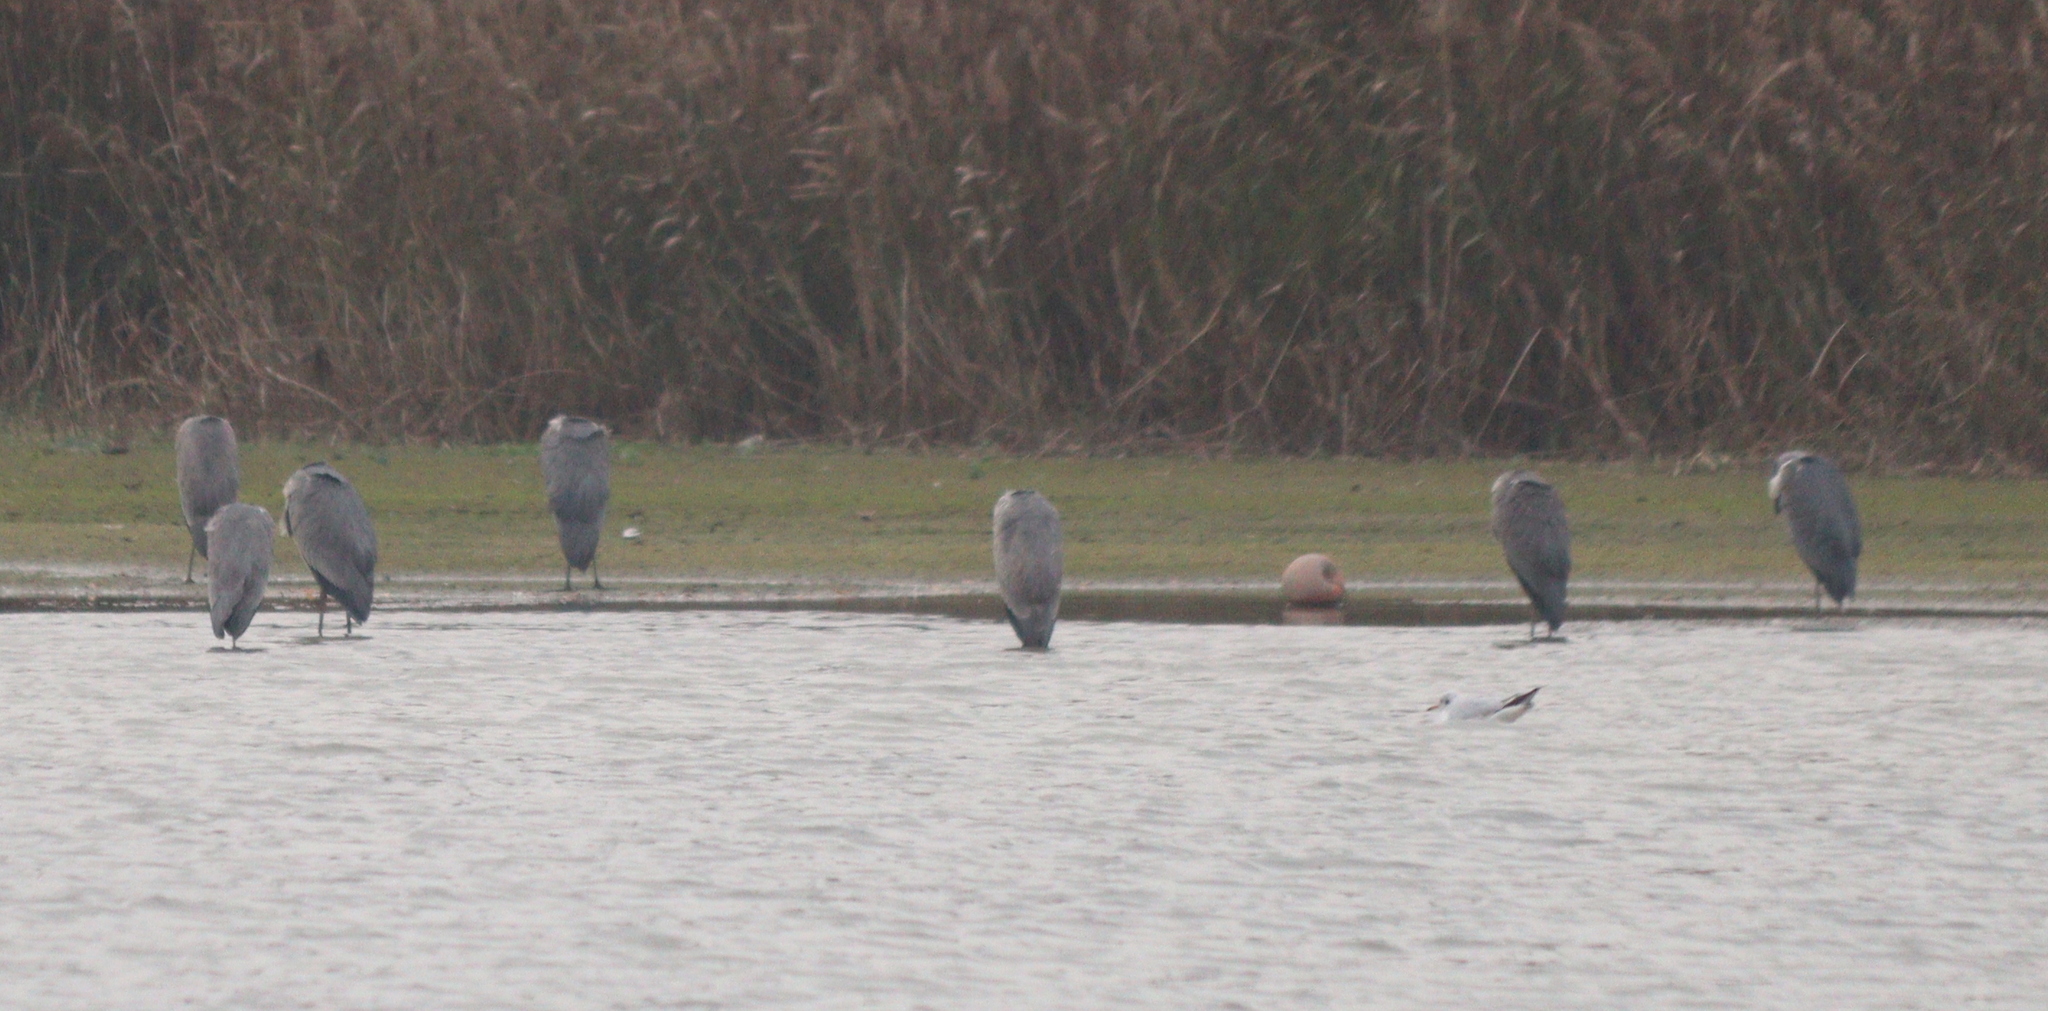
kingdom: Animalia
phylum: Chordata
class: Aves
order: Pelecaniformes
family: Ardeidae
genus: Ardea
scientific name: Ardea cinerea
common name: Grey heron
